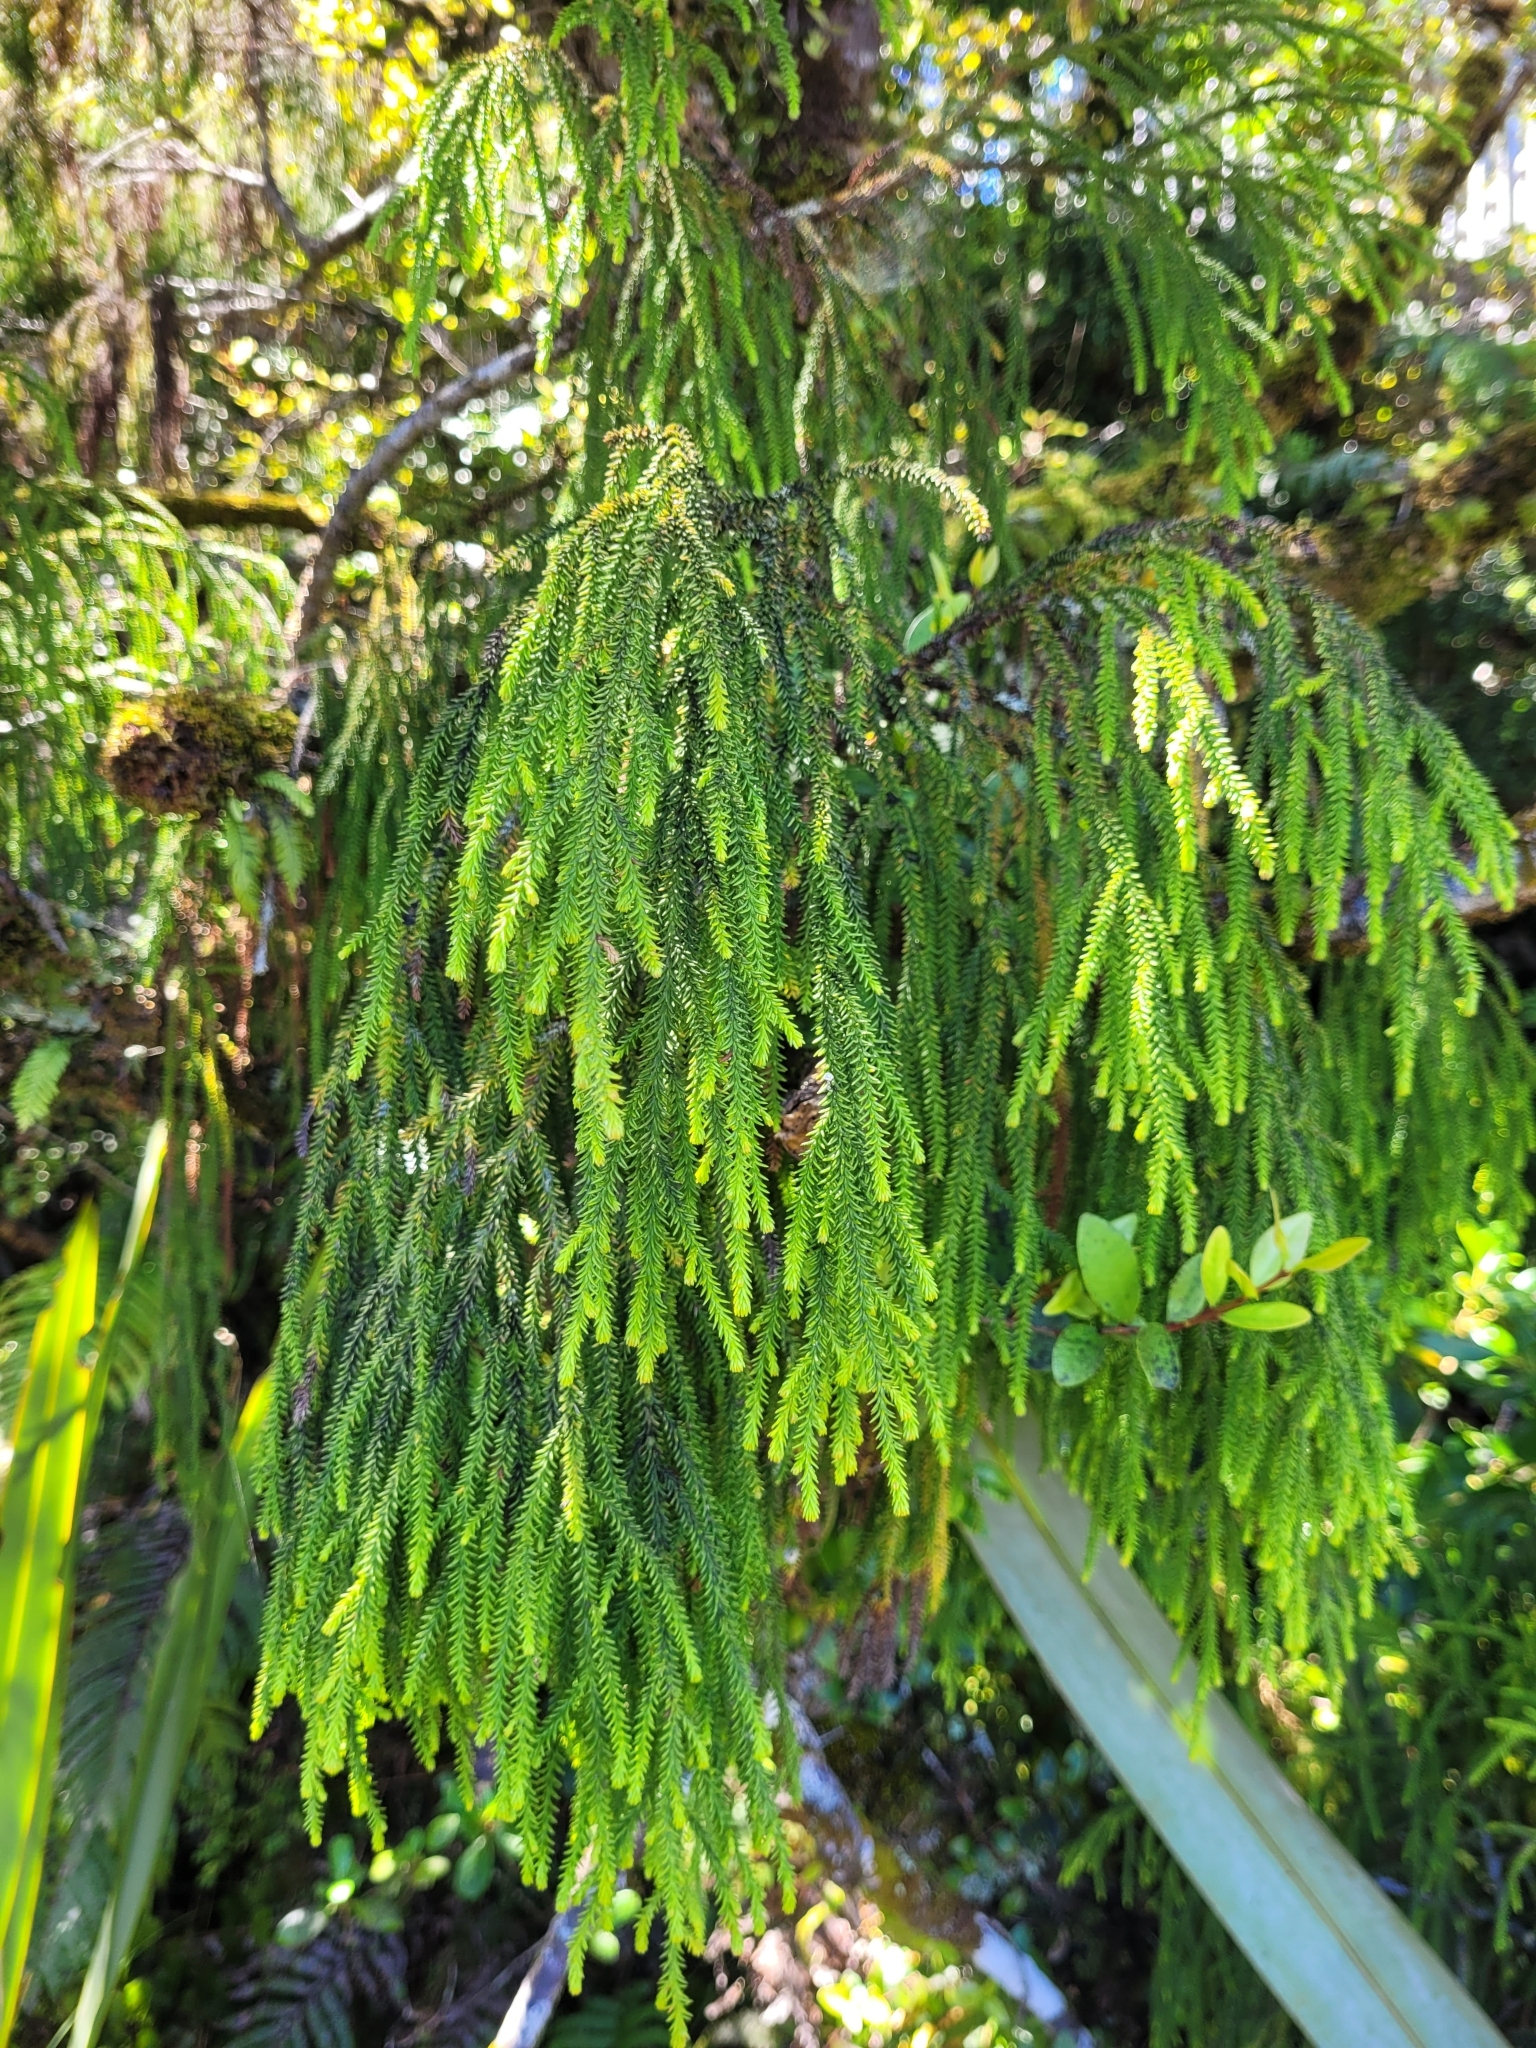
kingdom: Plantae
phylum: Tracheophyta
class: Pinopsida
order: Pinales
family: Podocarpaceae
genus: Dacrydium
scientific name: Dacrydium cupressinum
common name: Red pine
